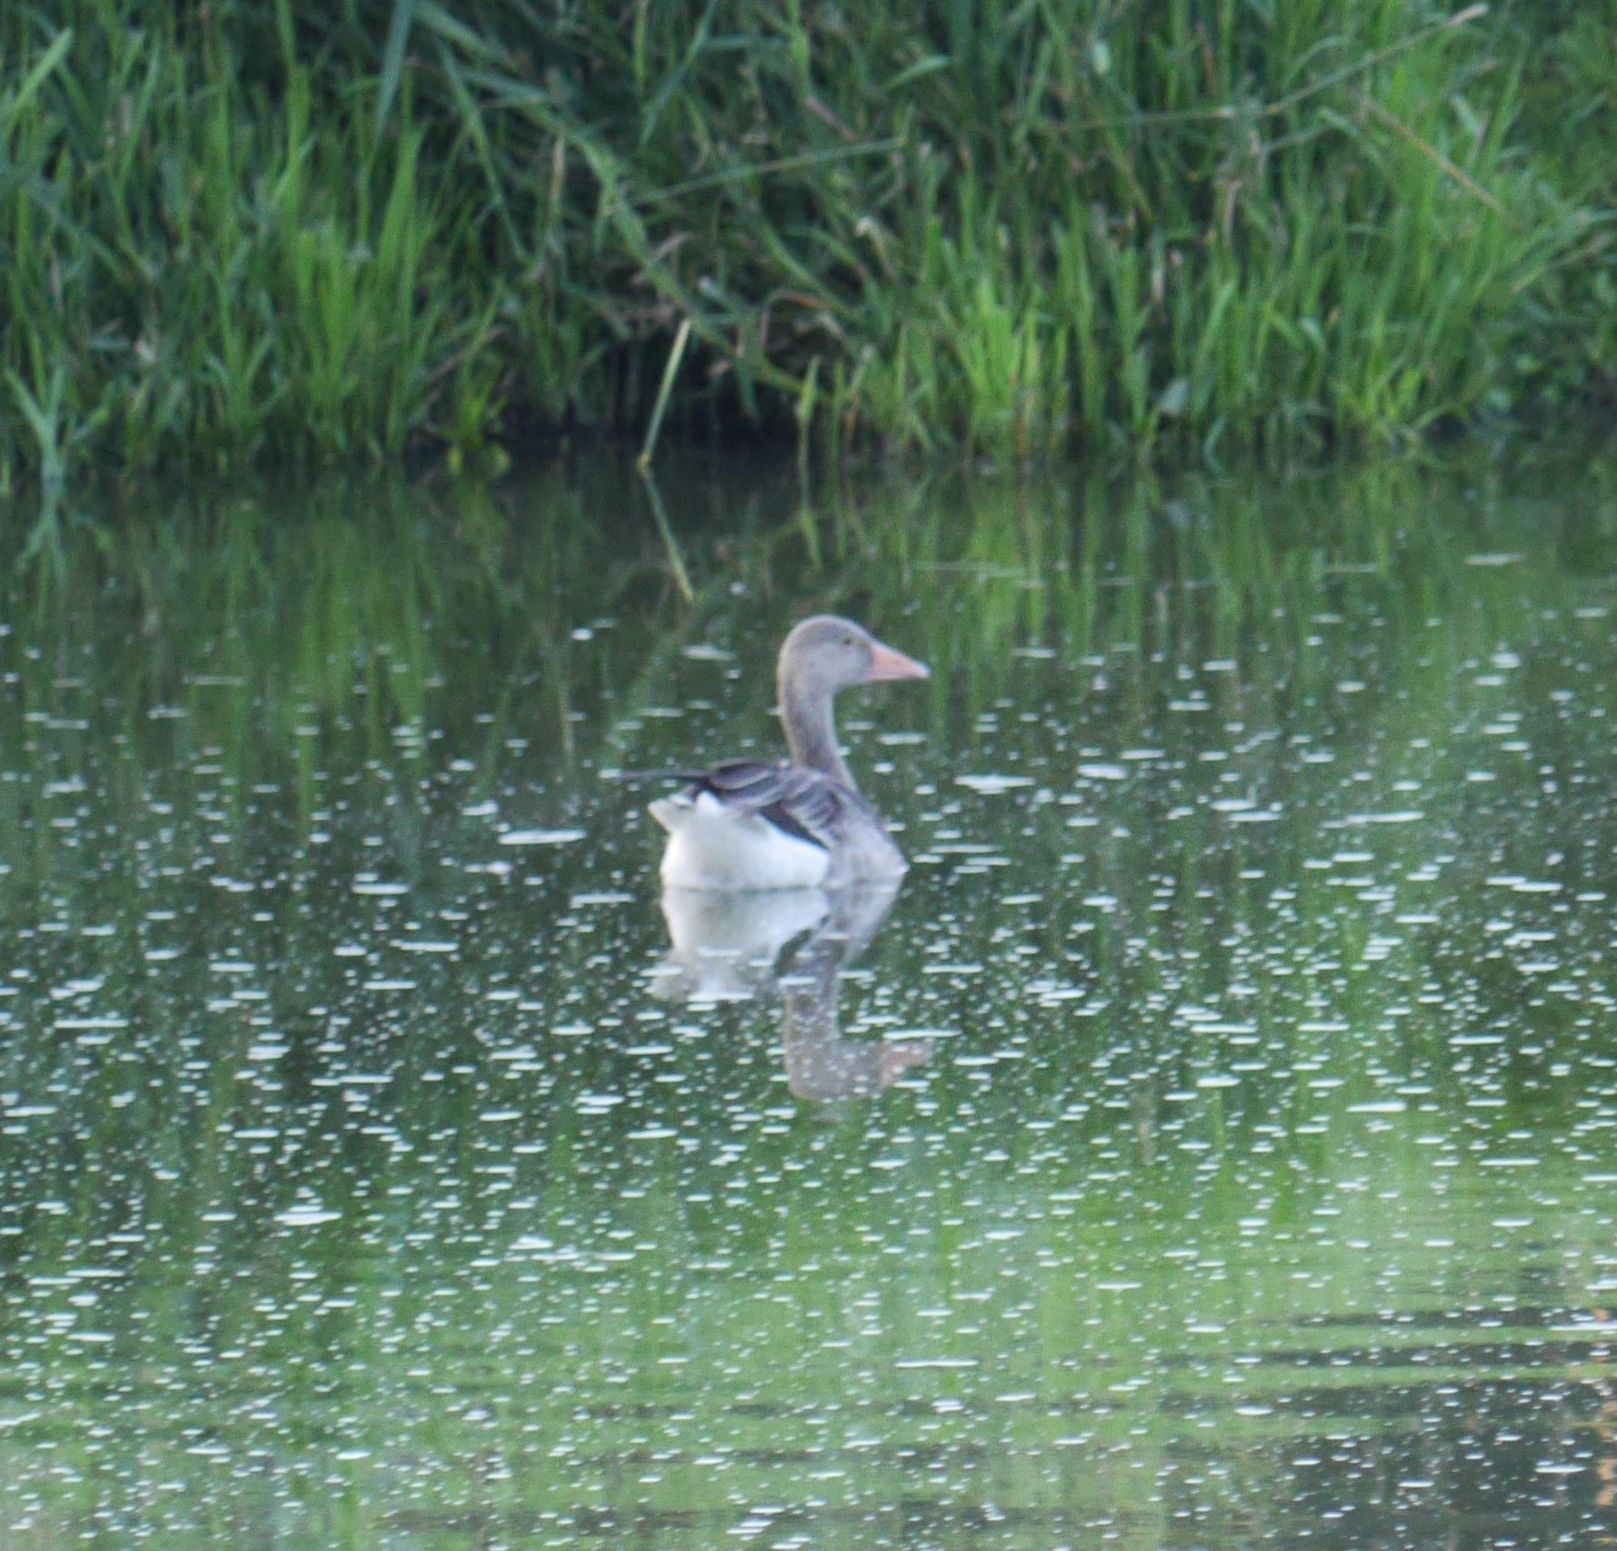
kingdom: Animalia
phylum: Chordata
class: Aves
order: Anseriformes
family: Anatidae
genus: Anser
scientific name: Anser anser
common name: Greylag goose
